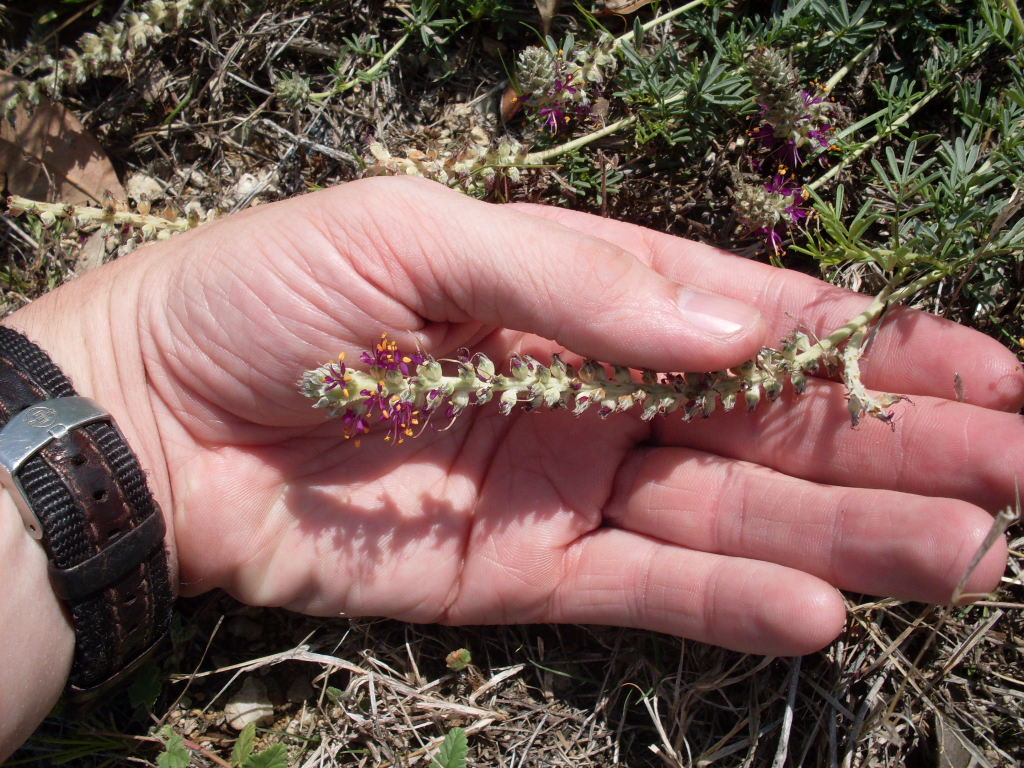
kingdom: Plantae
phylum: Tracheophyta
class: Magnoliopsida
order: Fabales
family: Fabaceae
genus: Dalea
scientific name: Dalea reverchonii
